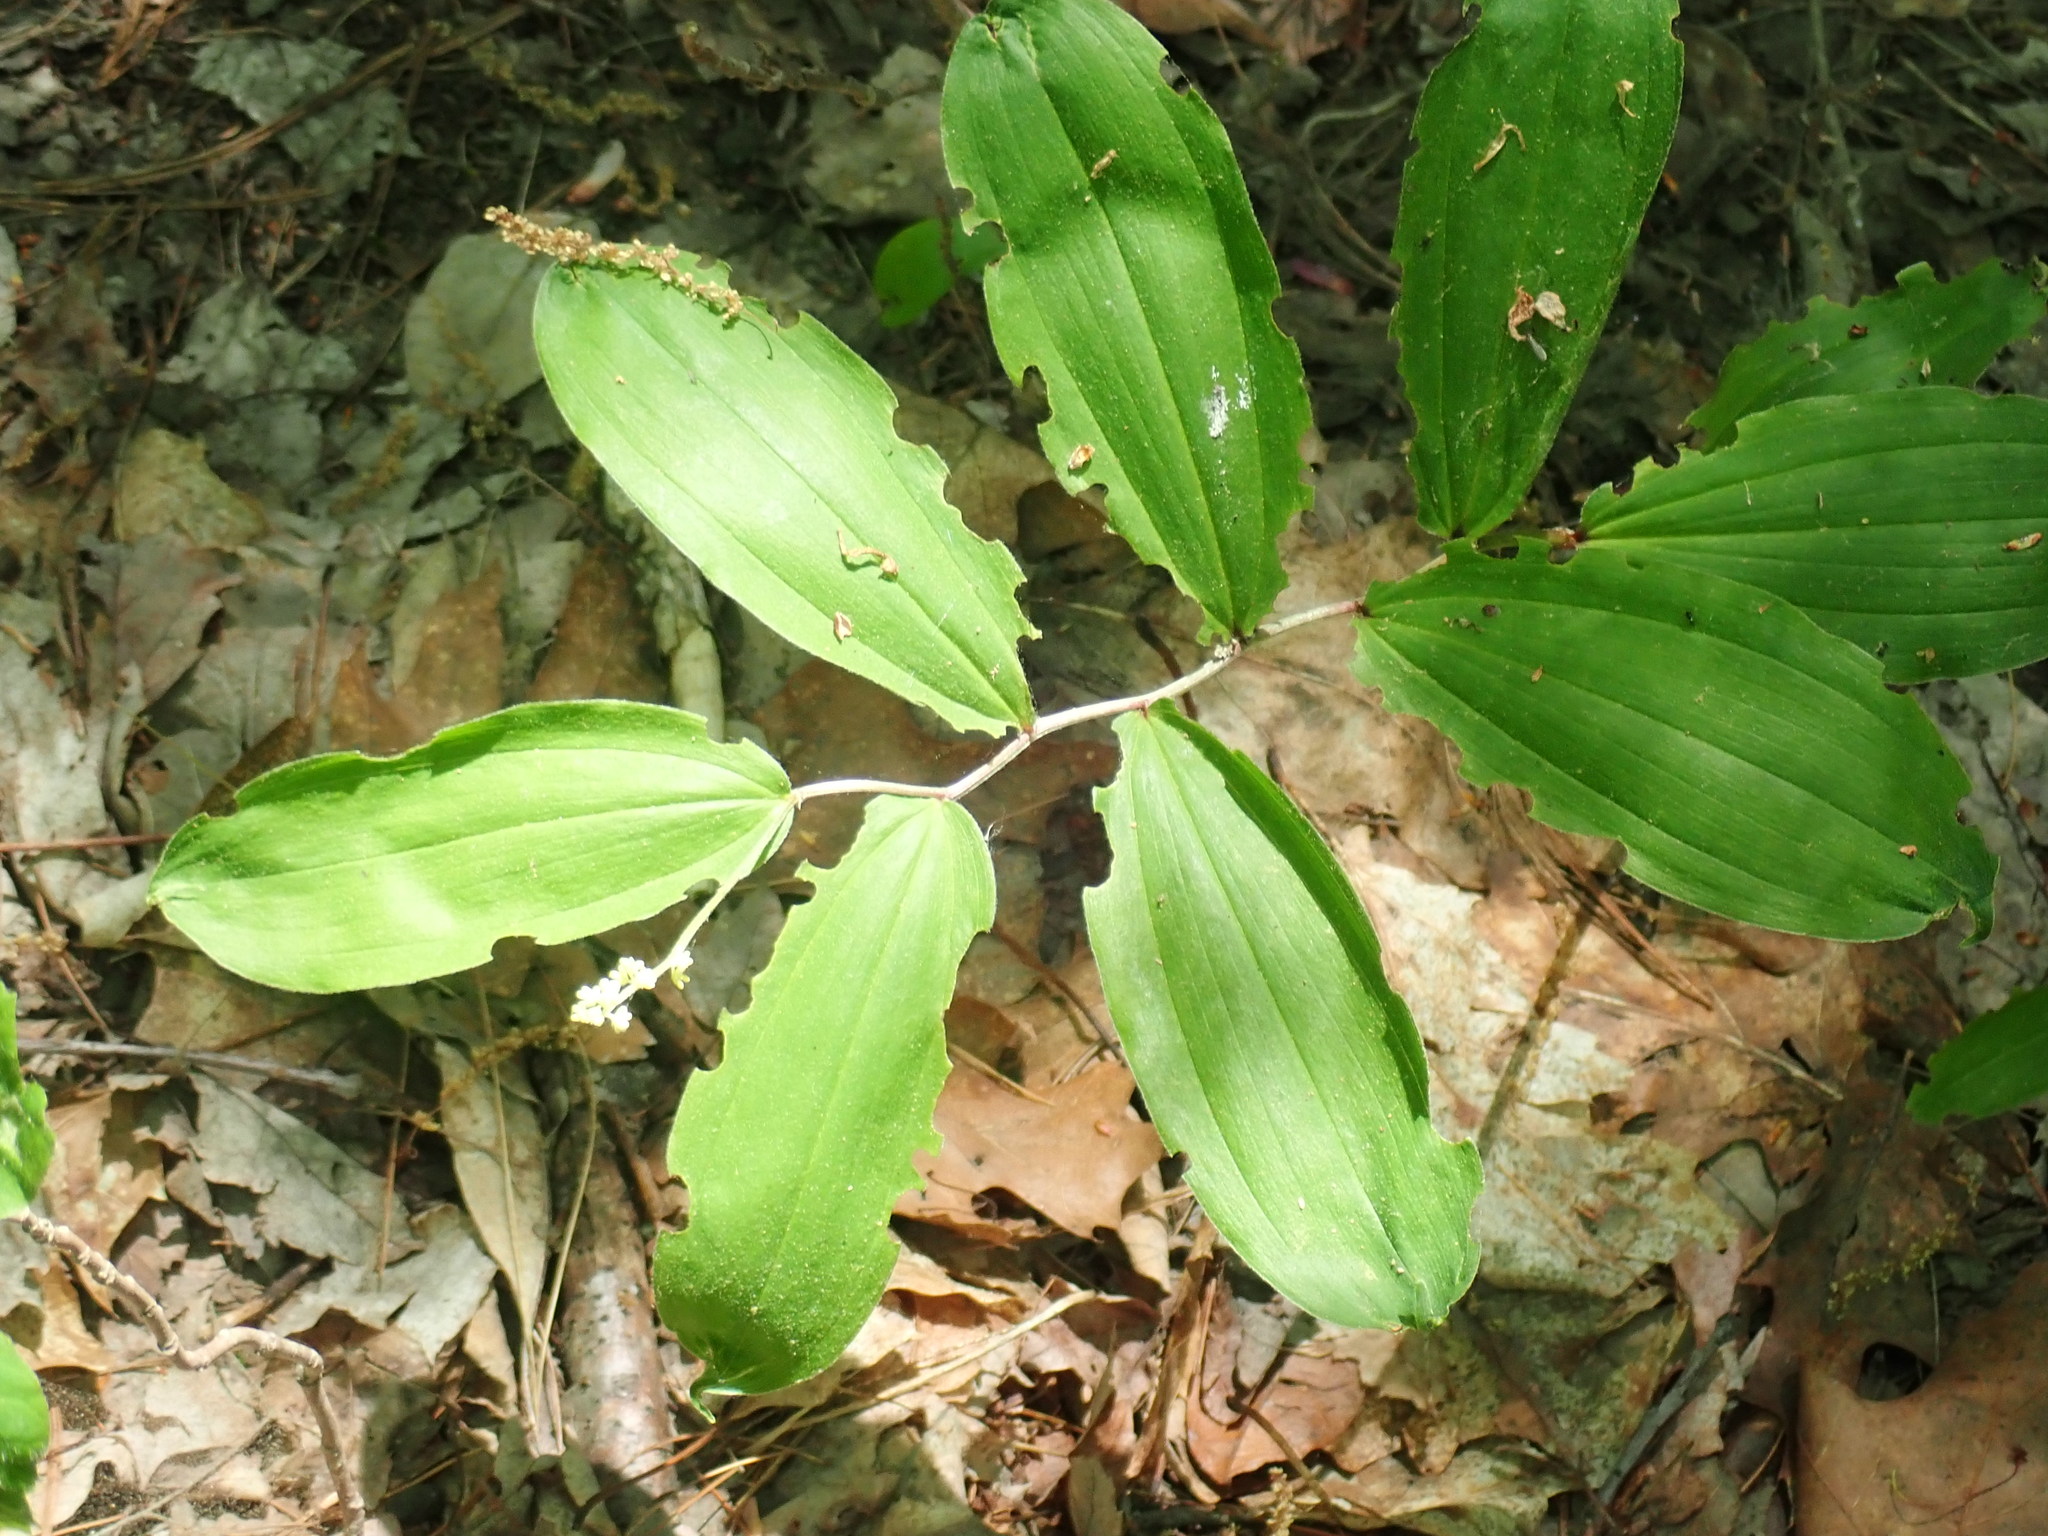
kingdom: Plantae
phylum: Tracheophyta
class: Liliopsida
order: Asparagales
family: Asparagaceae
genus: Maianthemum
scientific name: Maianthemum racemosum
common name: False spikenard
